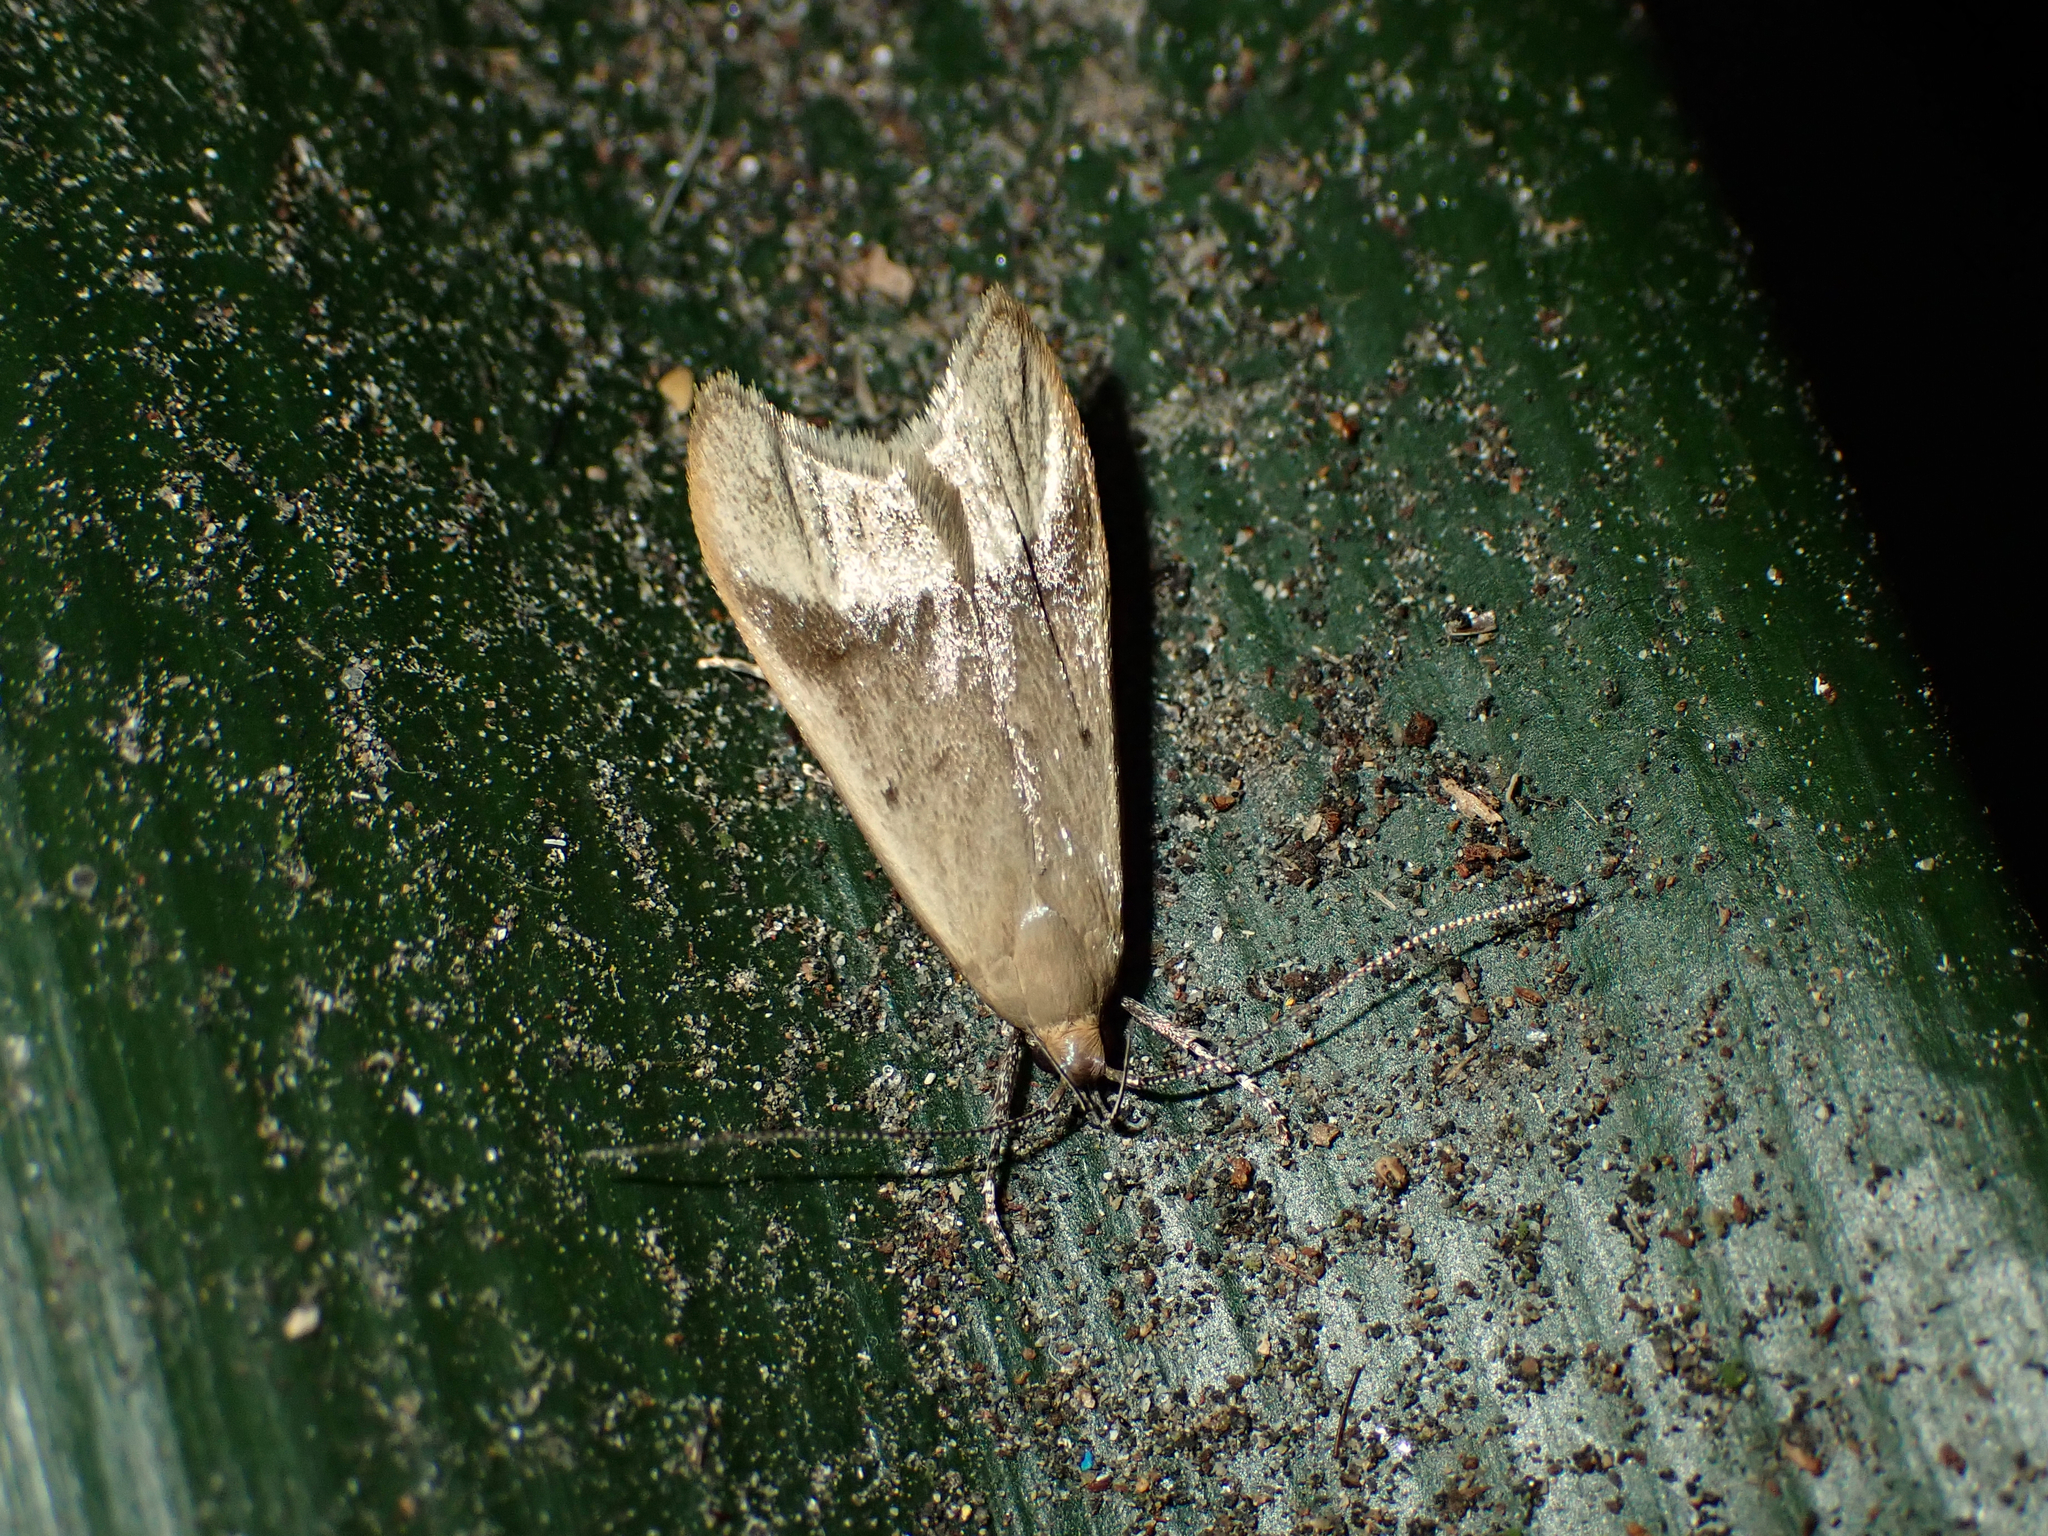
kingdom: Animalia
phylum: Arthropoda
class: Insecta
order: Lepidoptera
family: Oecophoridae
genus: Gymnobathra
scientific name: Gymnobathra hyetodes
